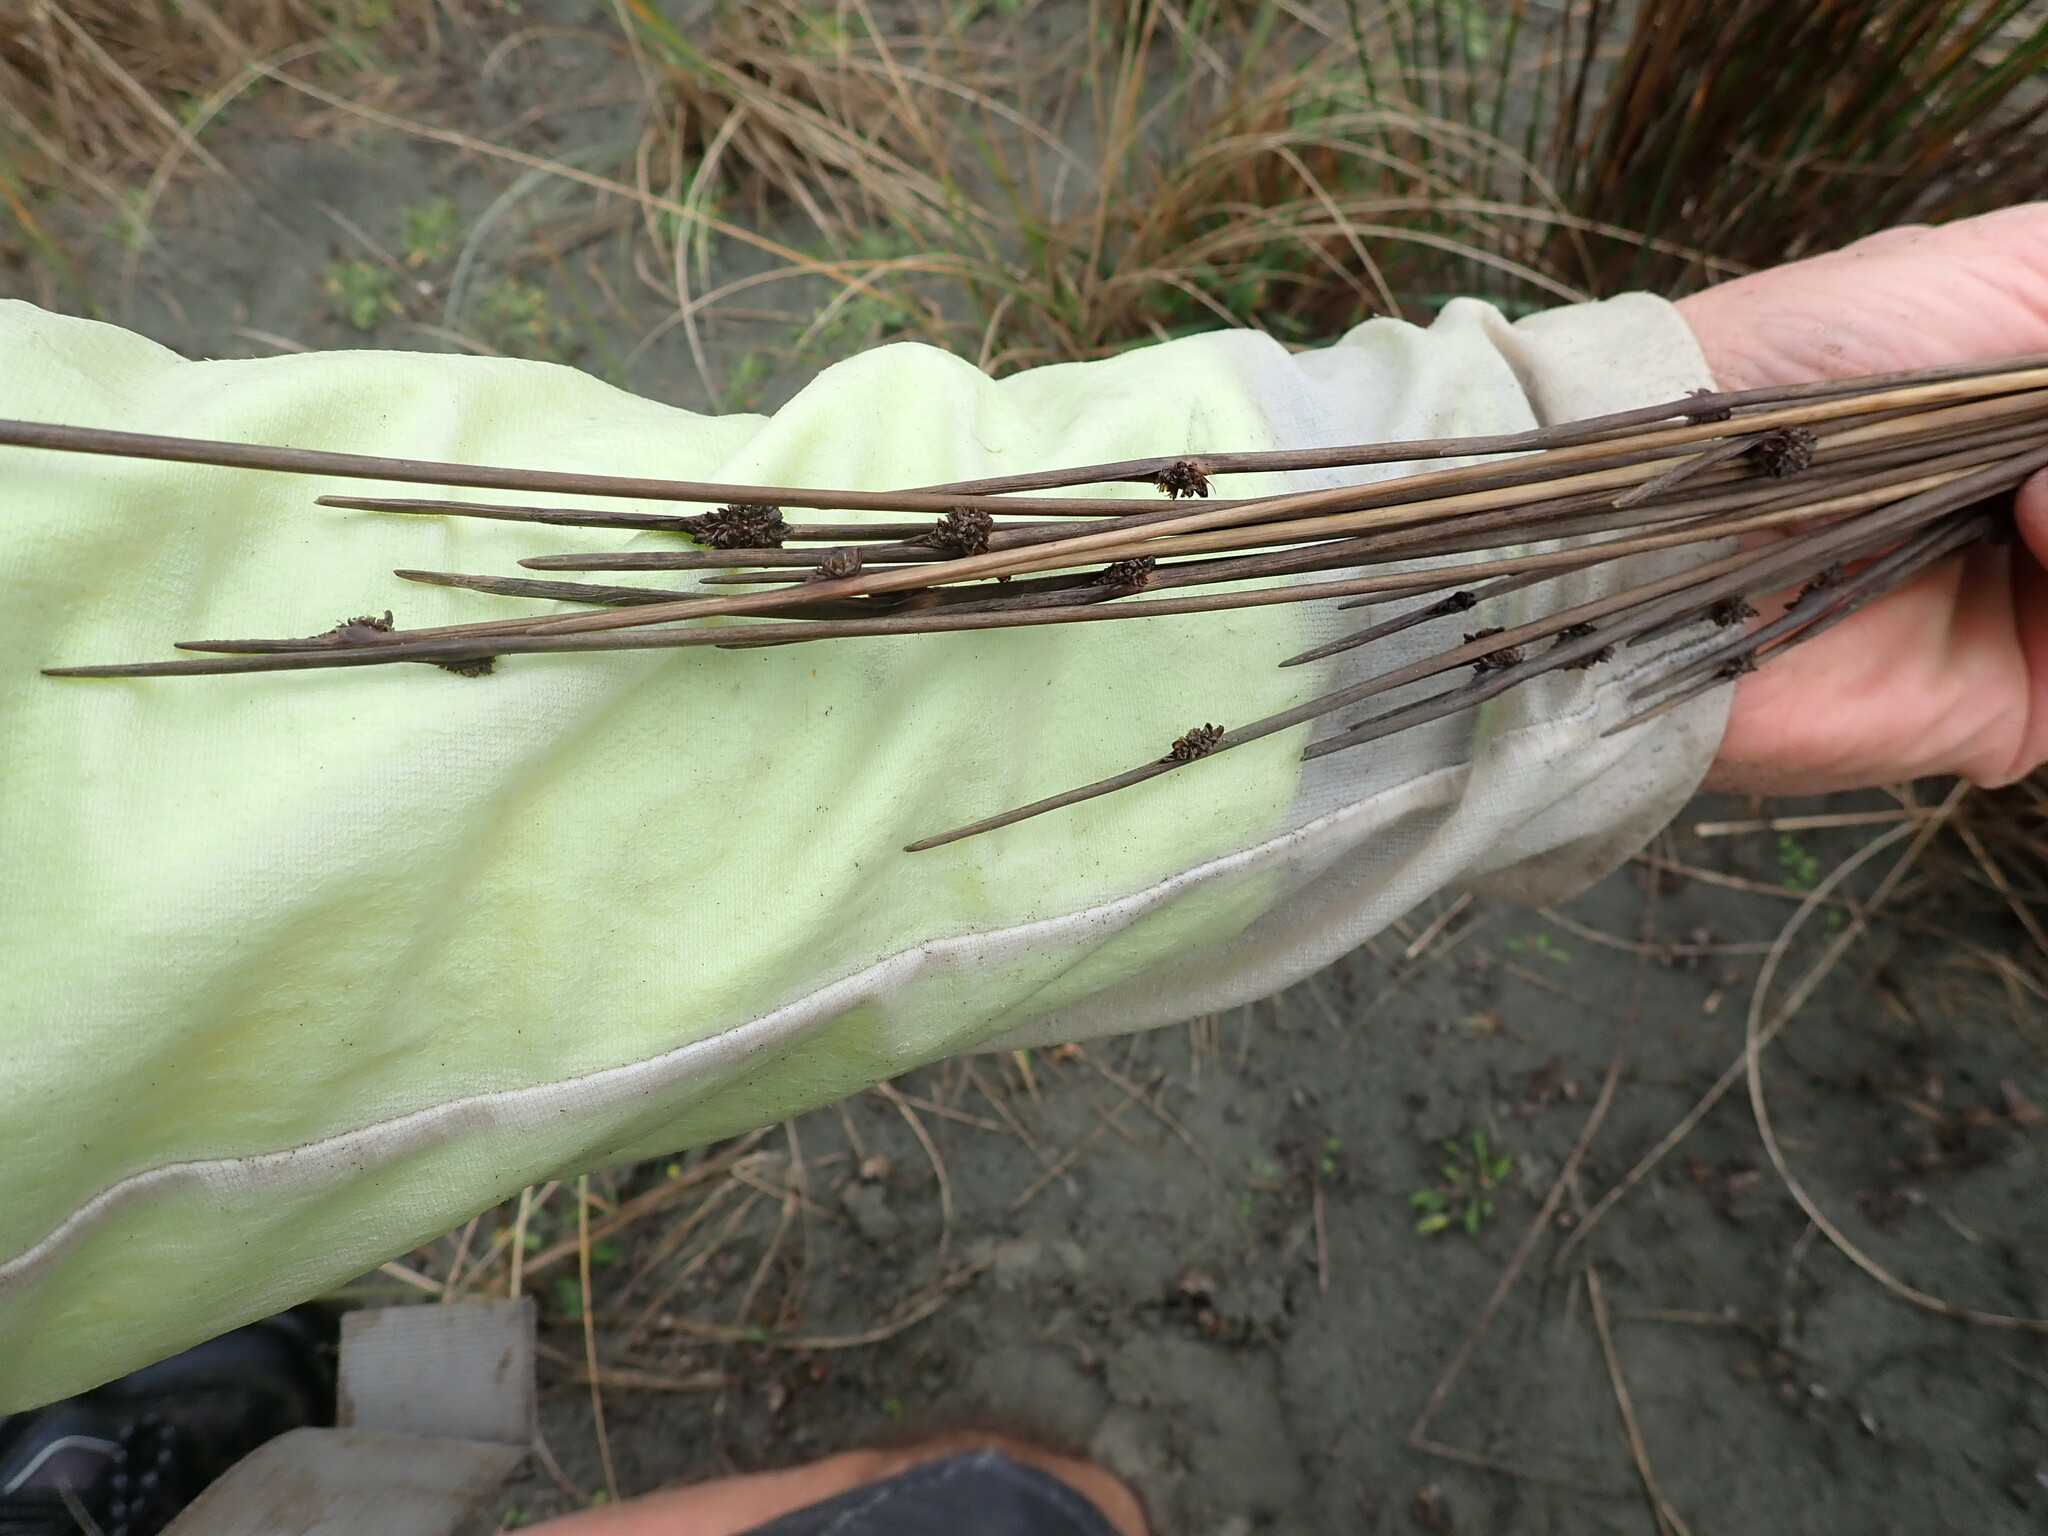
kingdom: Plantae
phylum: Tracheophyta
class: Liliopsida
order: Poales
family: Cyperaceae
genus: Ficinia
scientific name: Ficinia nodosa
